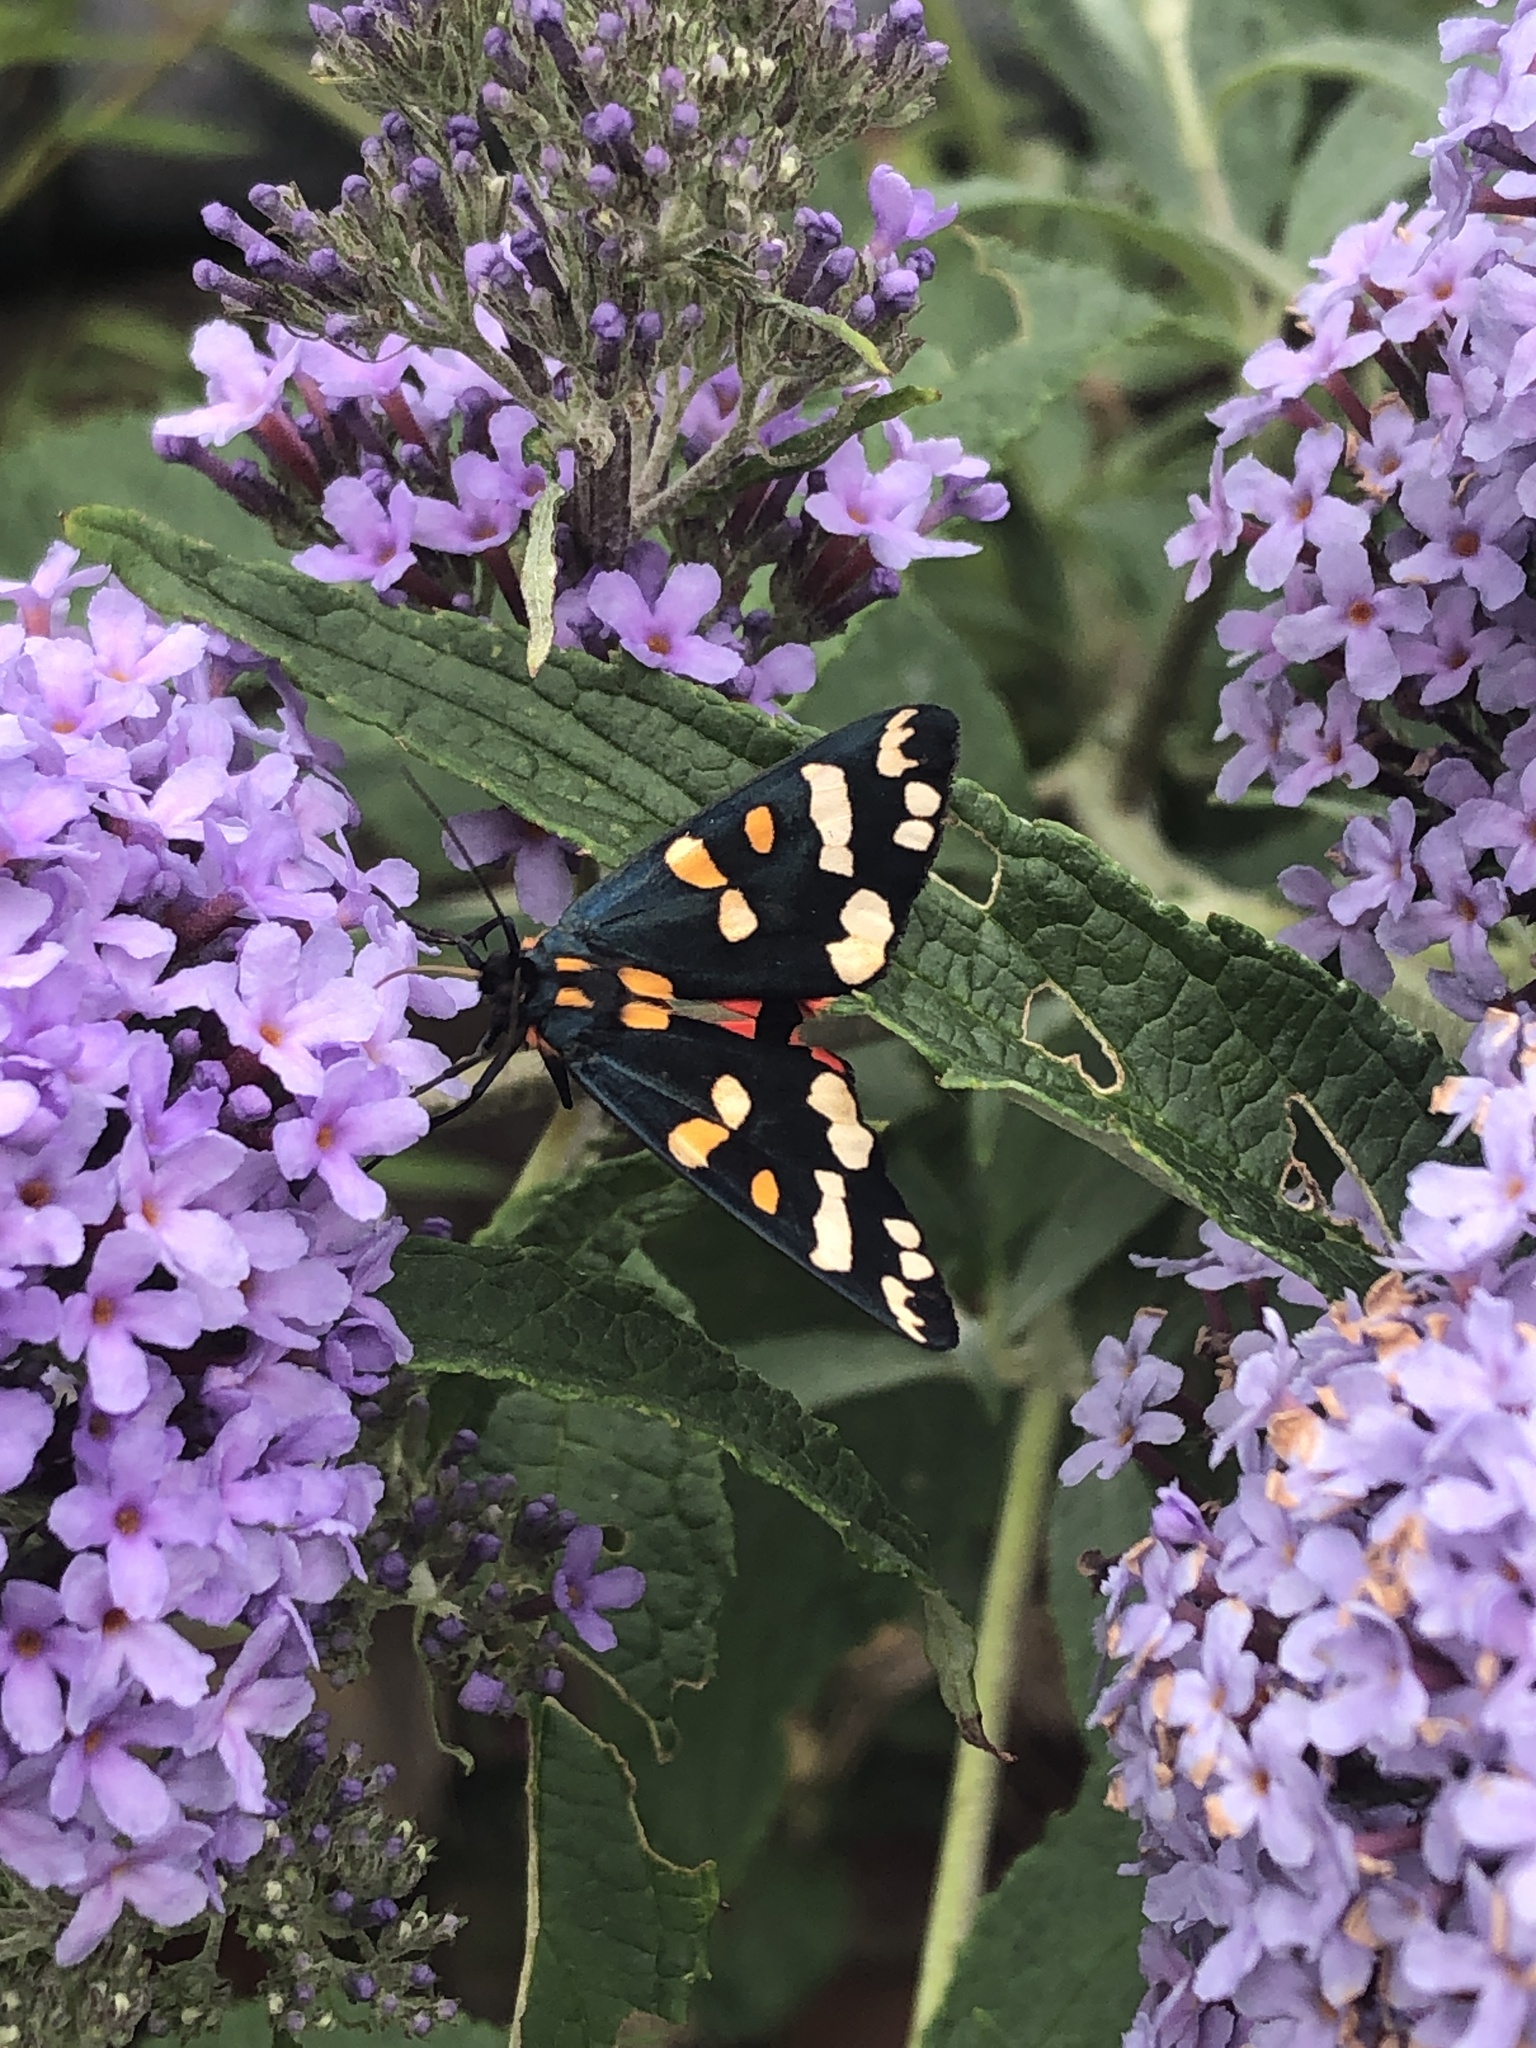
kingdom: Animalia
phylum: Arthropoda
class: Insecta
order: Lepidoptera
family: Erebidae
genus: Callimorpha
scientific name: Callimorpha dominula
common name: Scarlet tiger
